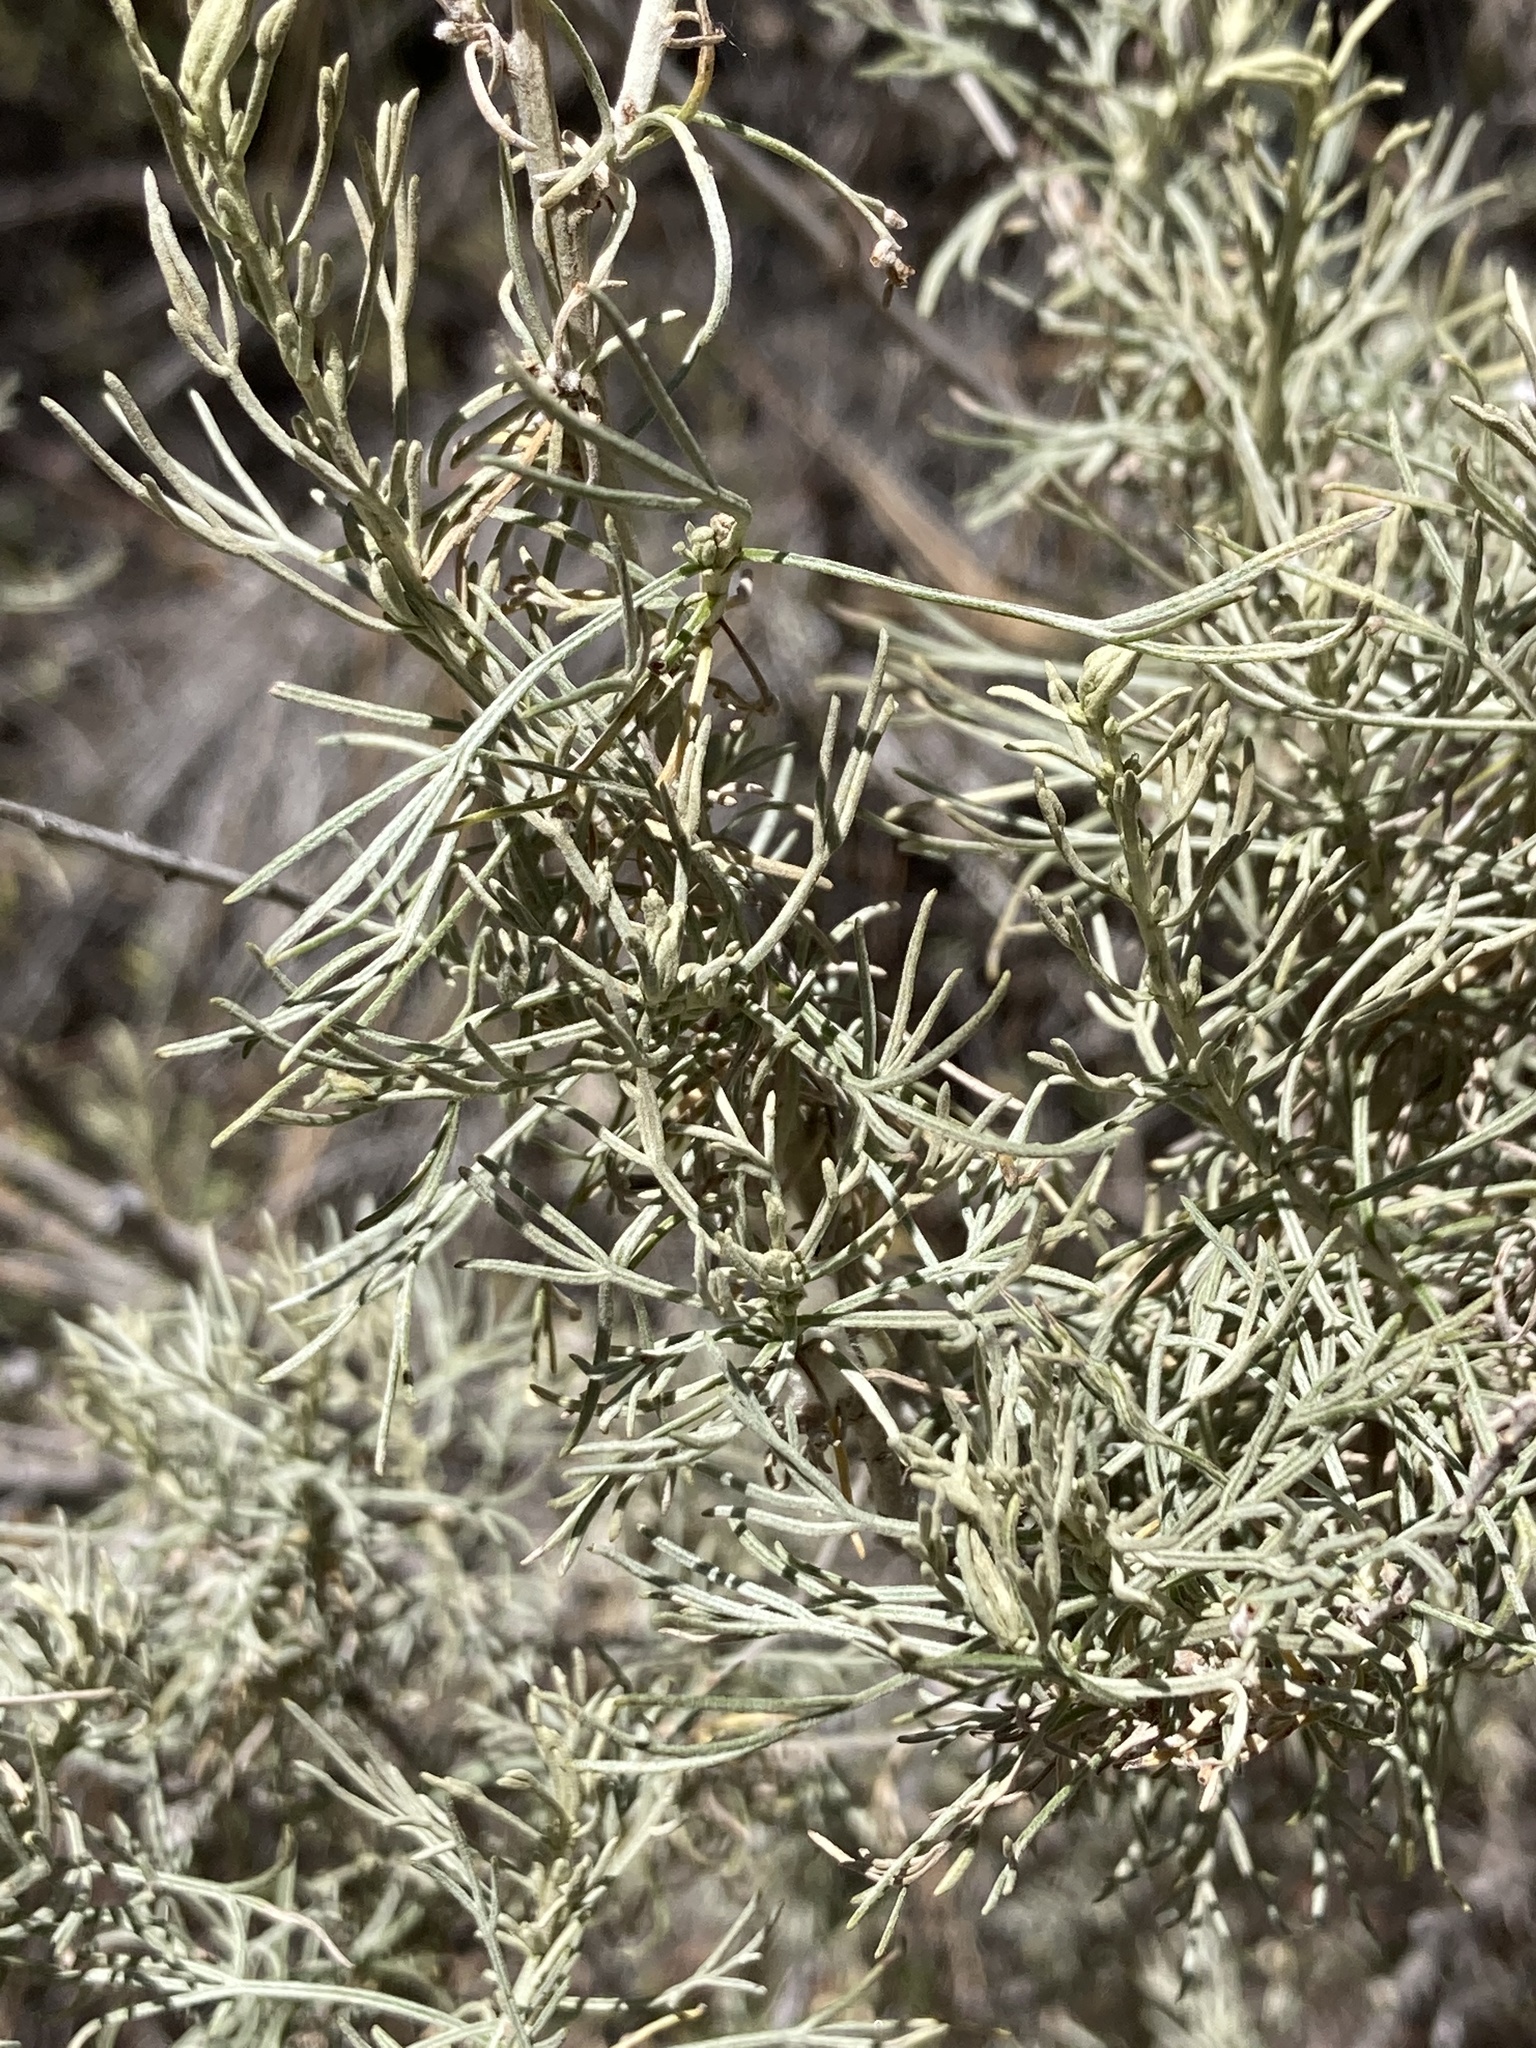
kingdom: Plantae
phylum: Tracheophyta
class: Magnoliopsida
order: Asterales
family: Asteraceae
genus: Artemisia
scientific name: Artemisia californica
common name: California sagebrush
